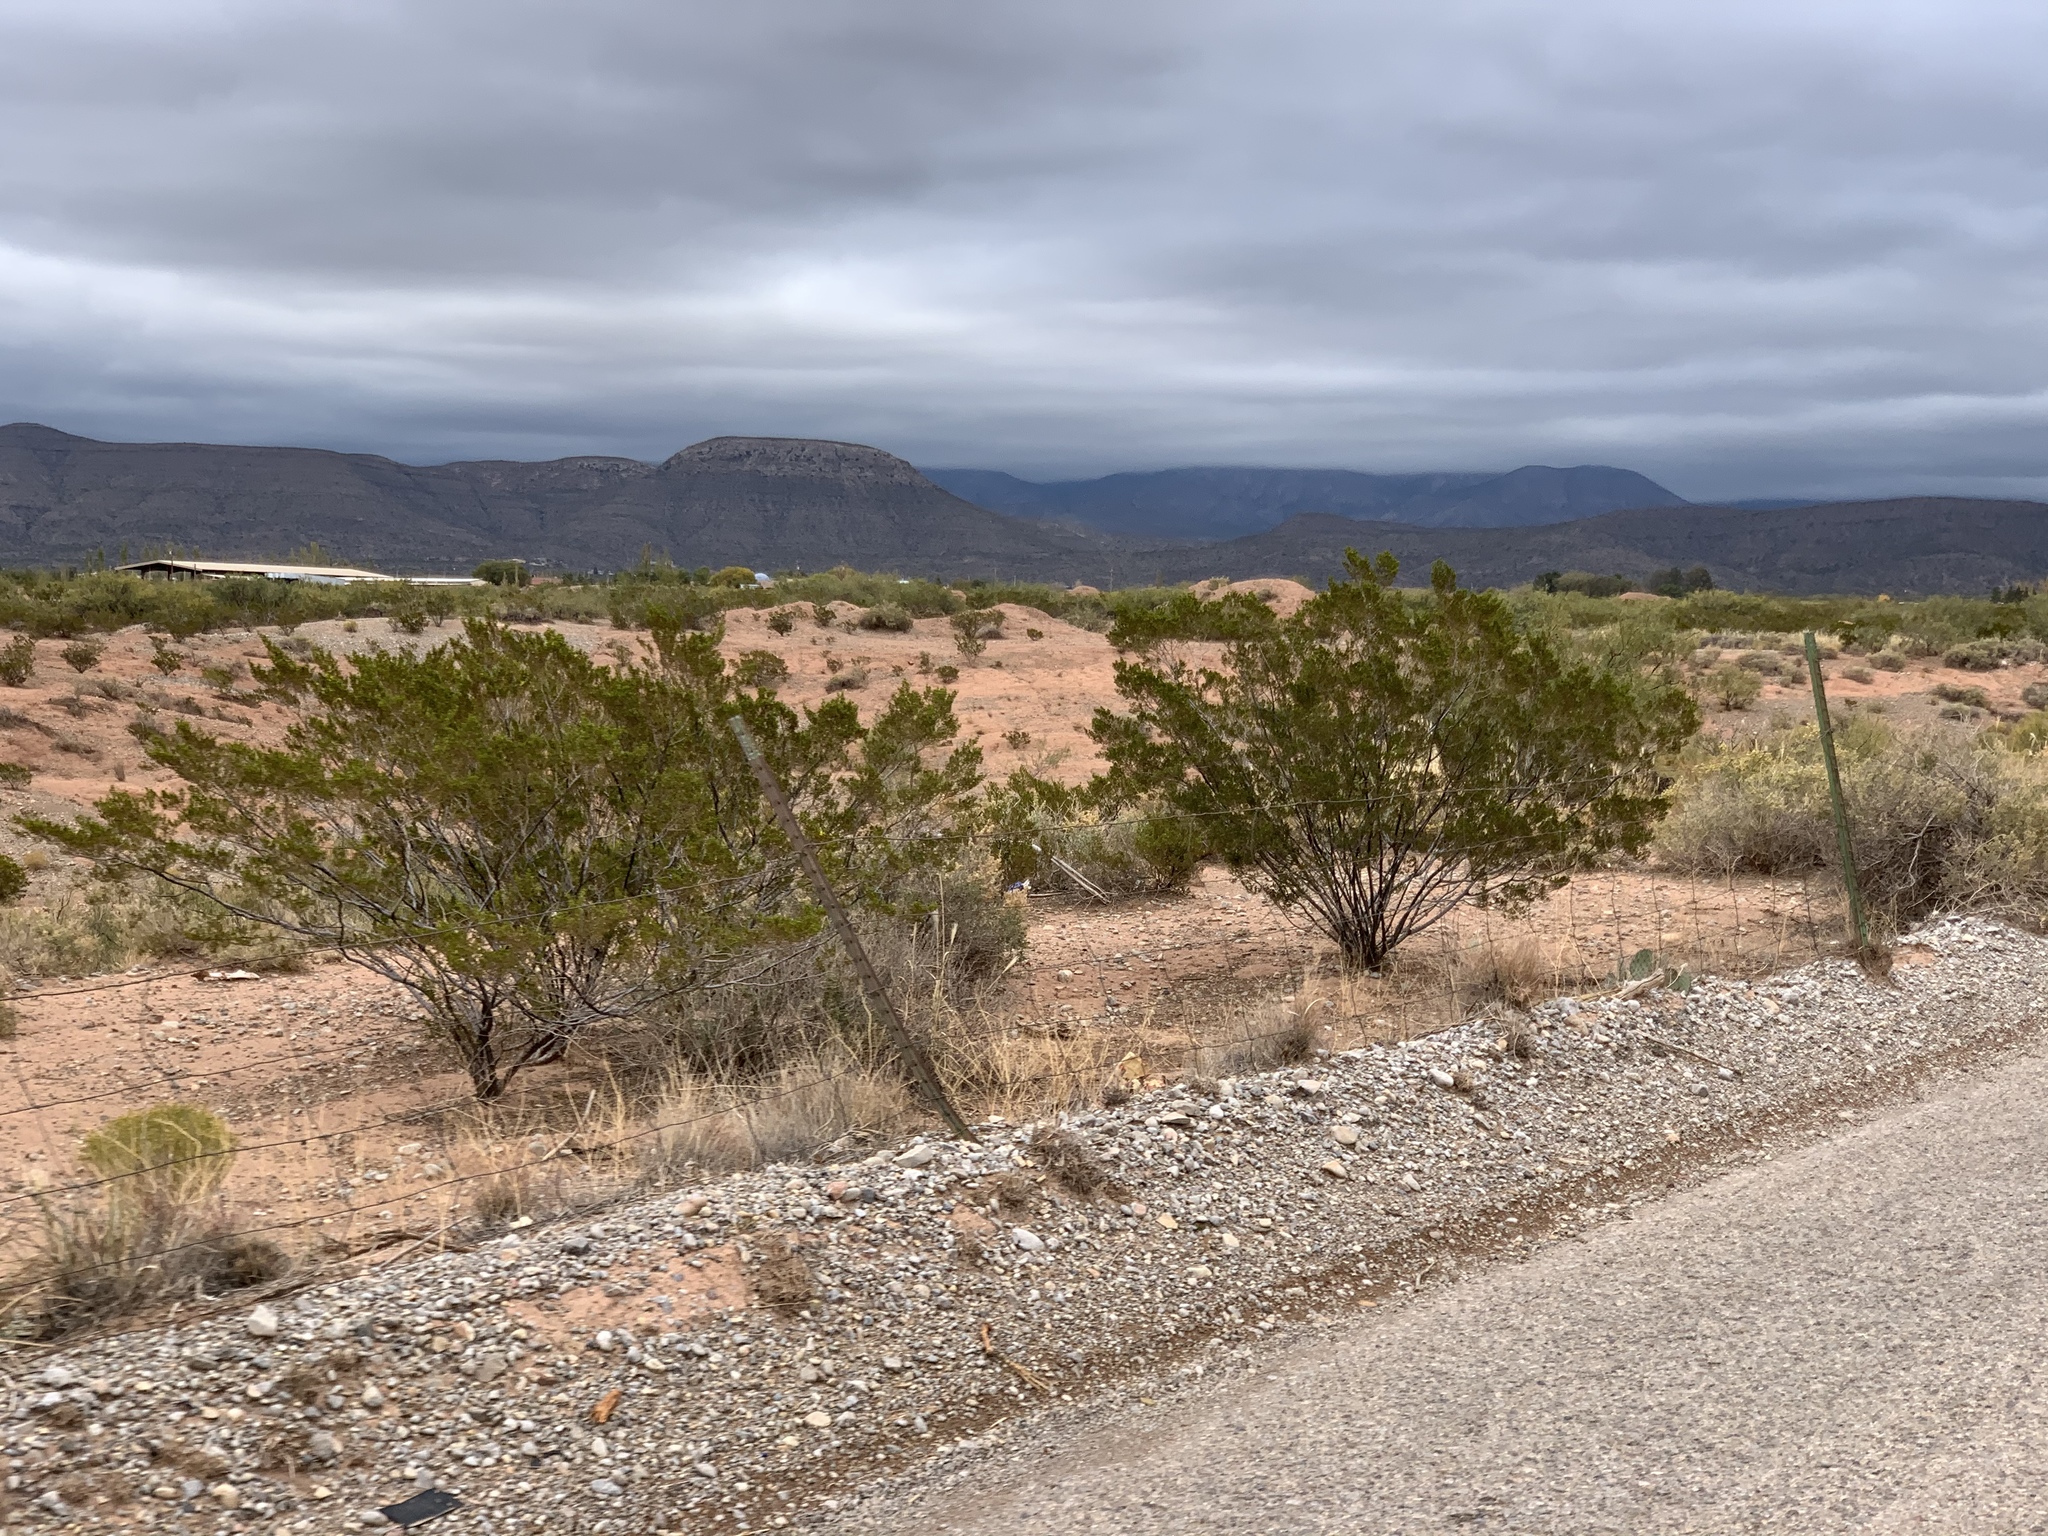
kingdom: Plantae
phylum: Tracheophyta
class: Magnoliopsida
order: Zygophyllales
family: Zygophyllaceae
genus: Larrea
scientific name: Larrea tridentata
